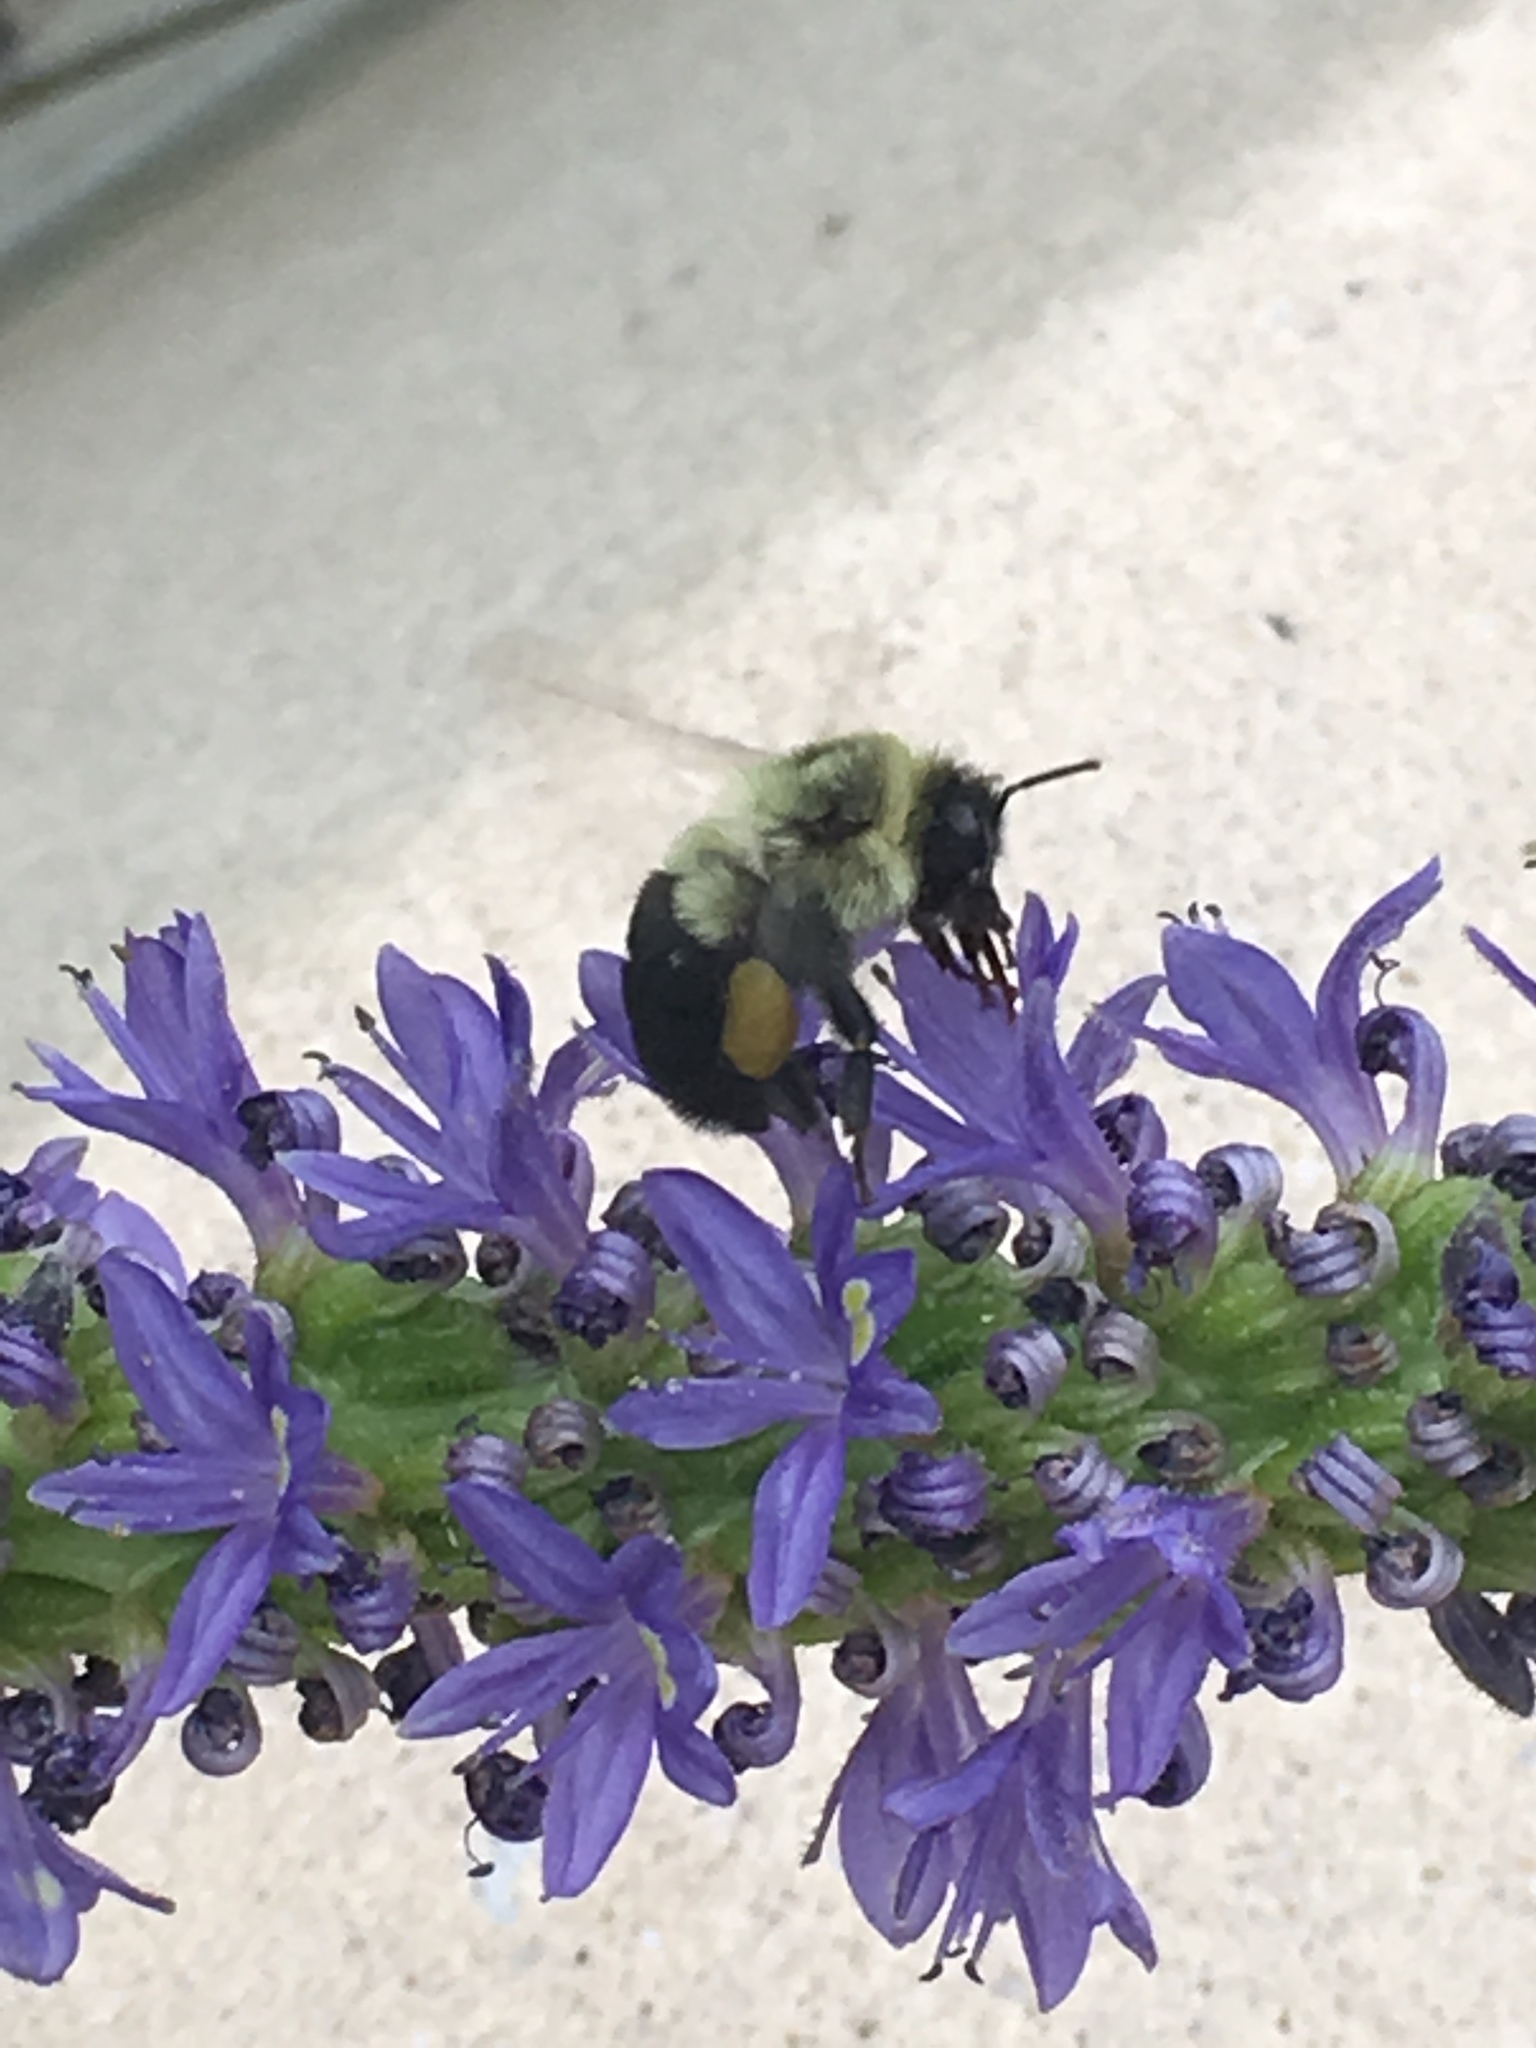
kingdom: Animalia
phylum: Arthropoda
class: Insecta
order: Hymenoptera
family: Apidae
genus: Bombus
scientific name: Bombus impatiens
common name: Common eastern bumble bee
